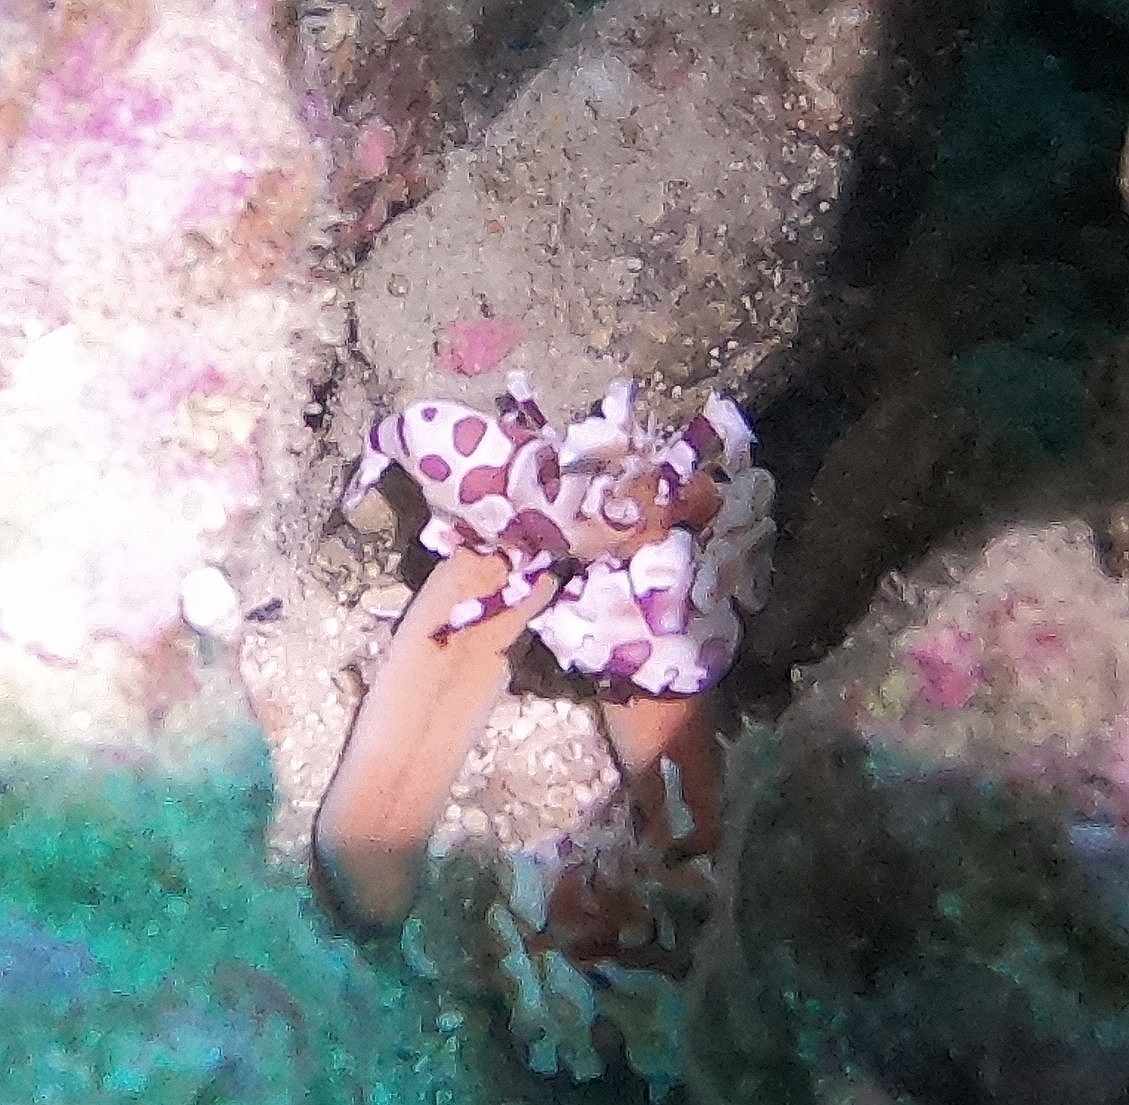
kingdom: Animalia
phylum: Arthropoda
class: Malacostraca
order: Decapoda
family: Palaemonidae
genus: Hymenocera
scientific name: Hymenocera picta
